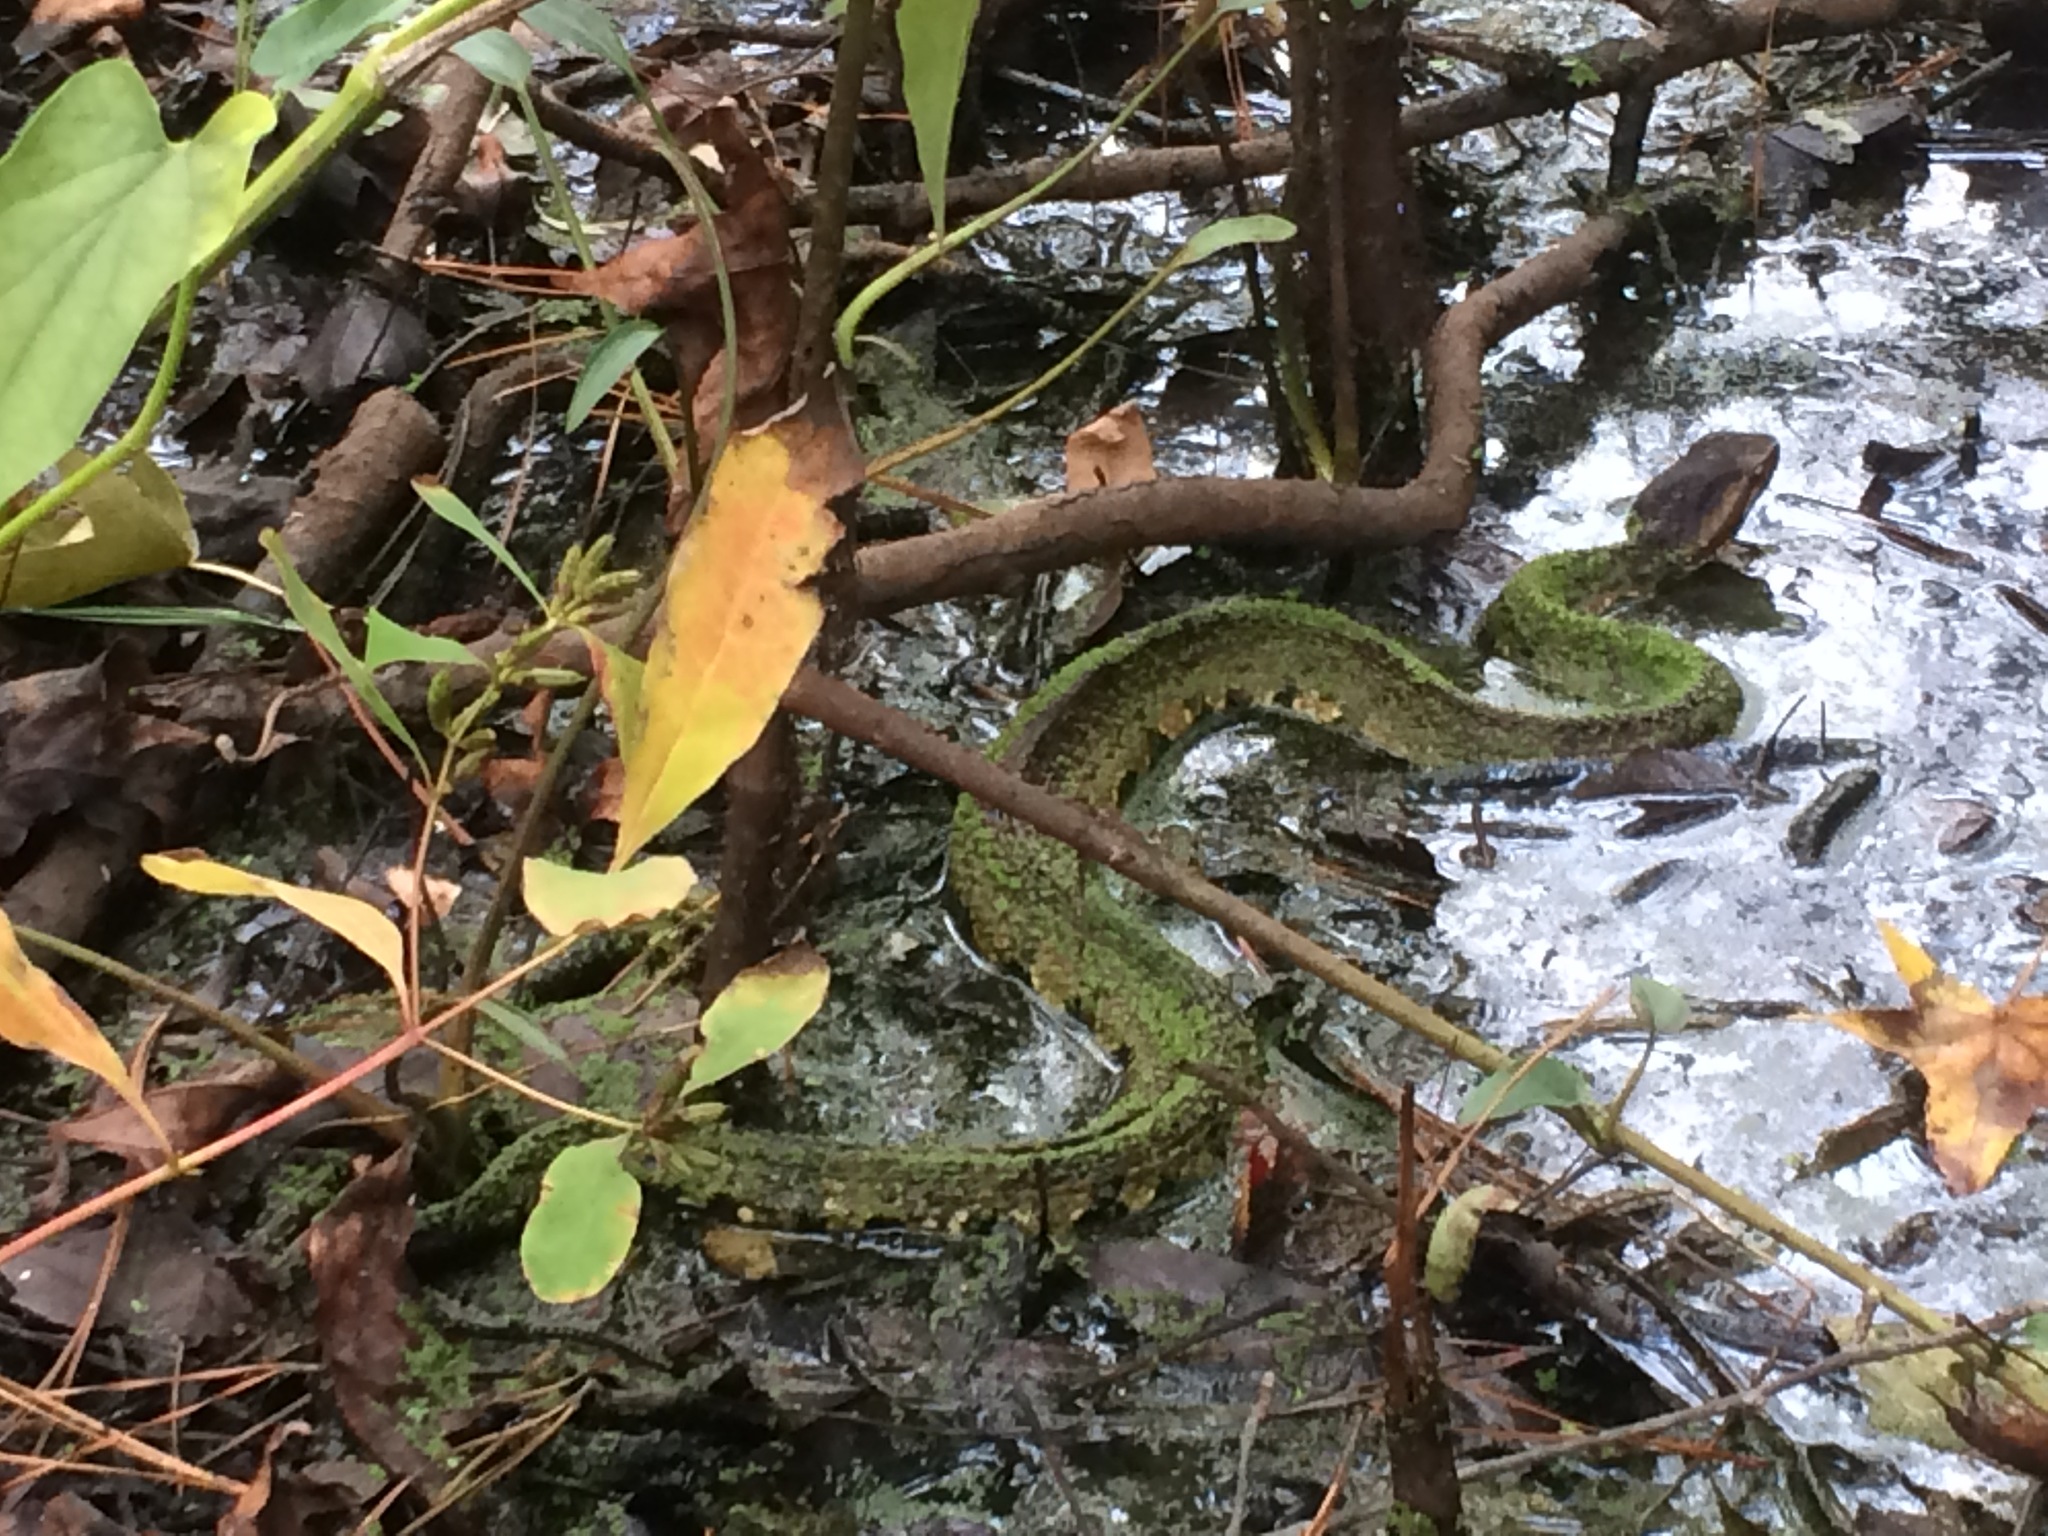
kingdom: Animalia
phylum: Chordata
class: Squamata
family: Viperidae
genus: Agkistrodon
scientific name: Agkistrodon piscivorus
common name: Cottonmouth
